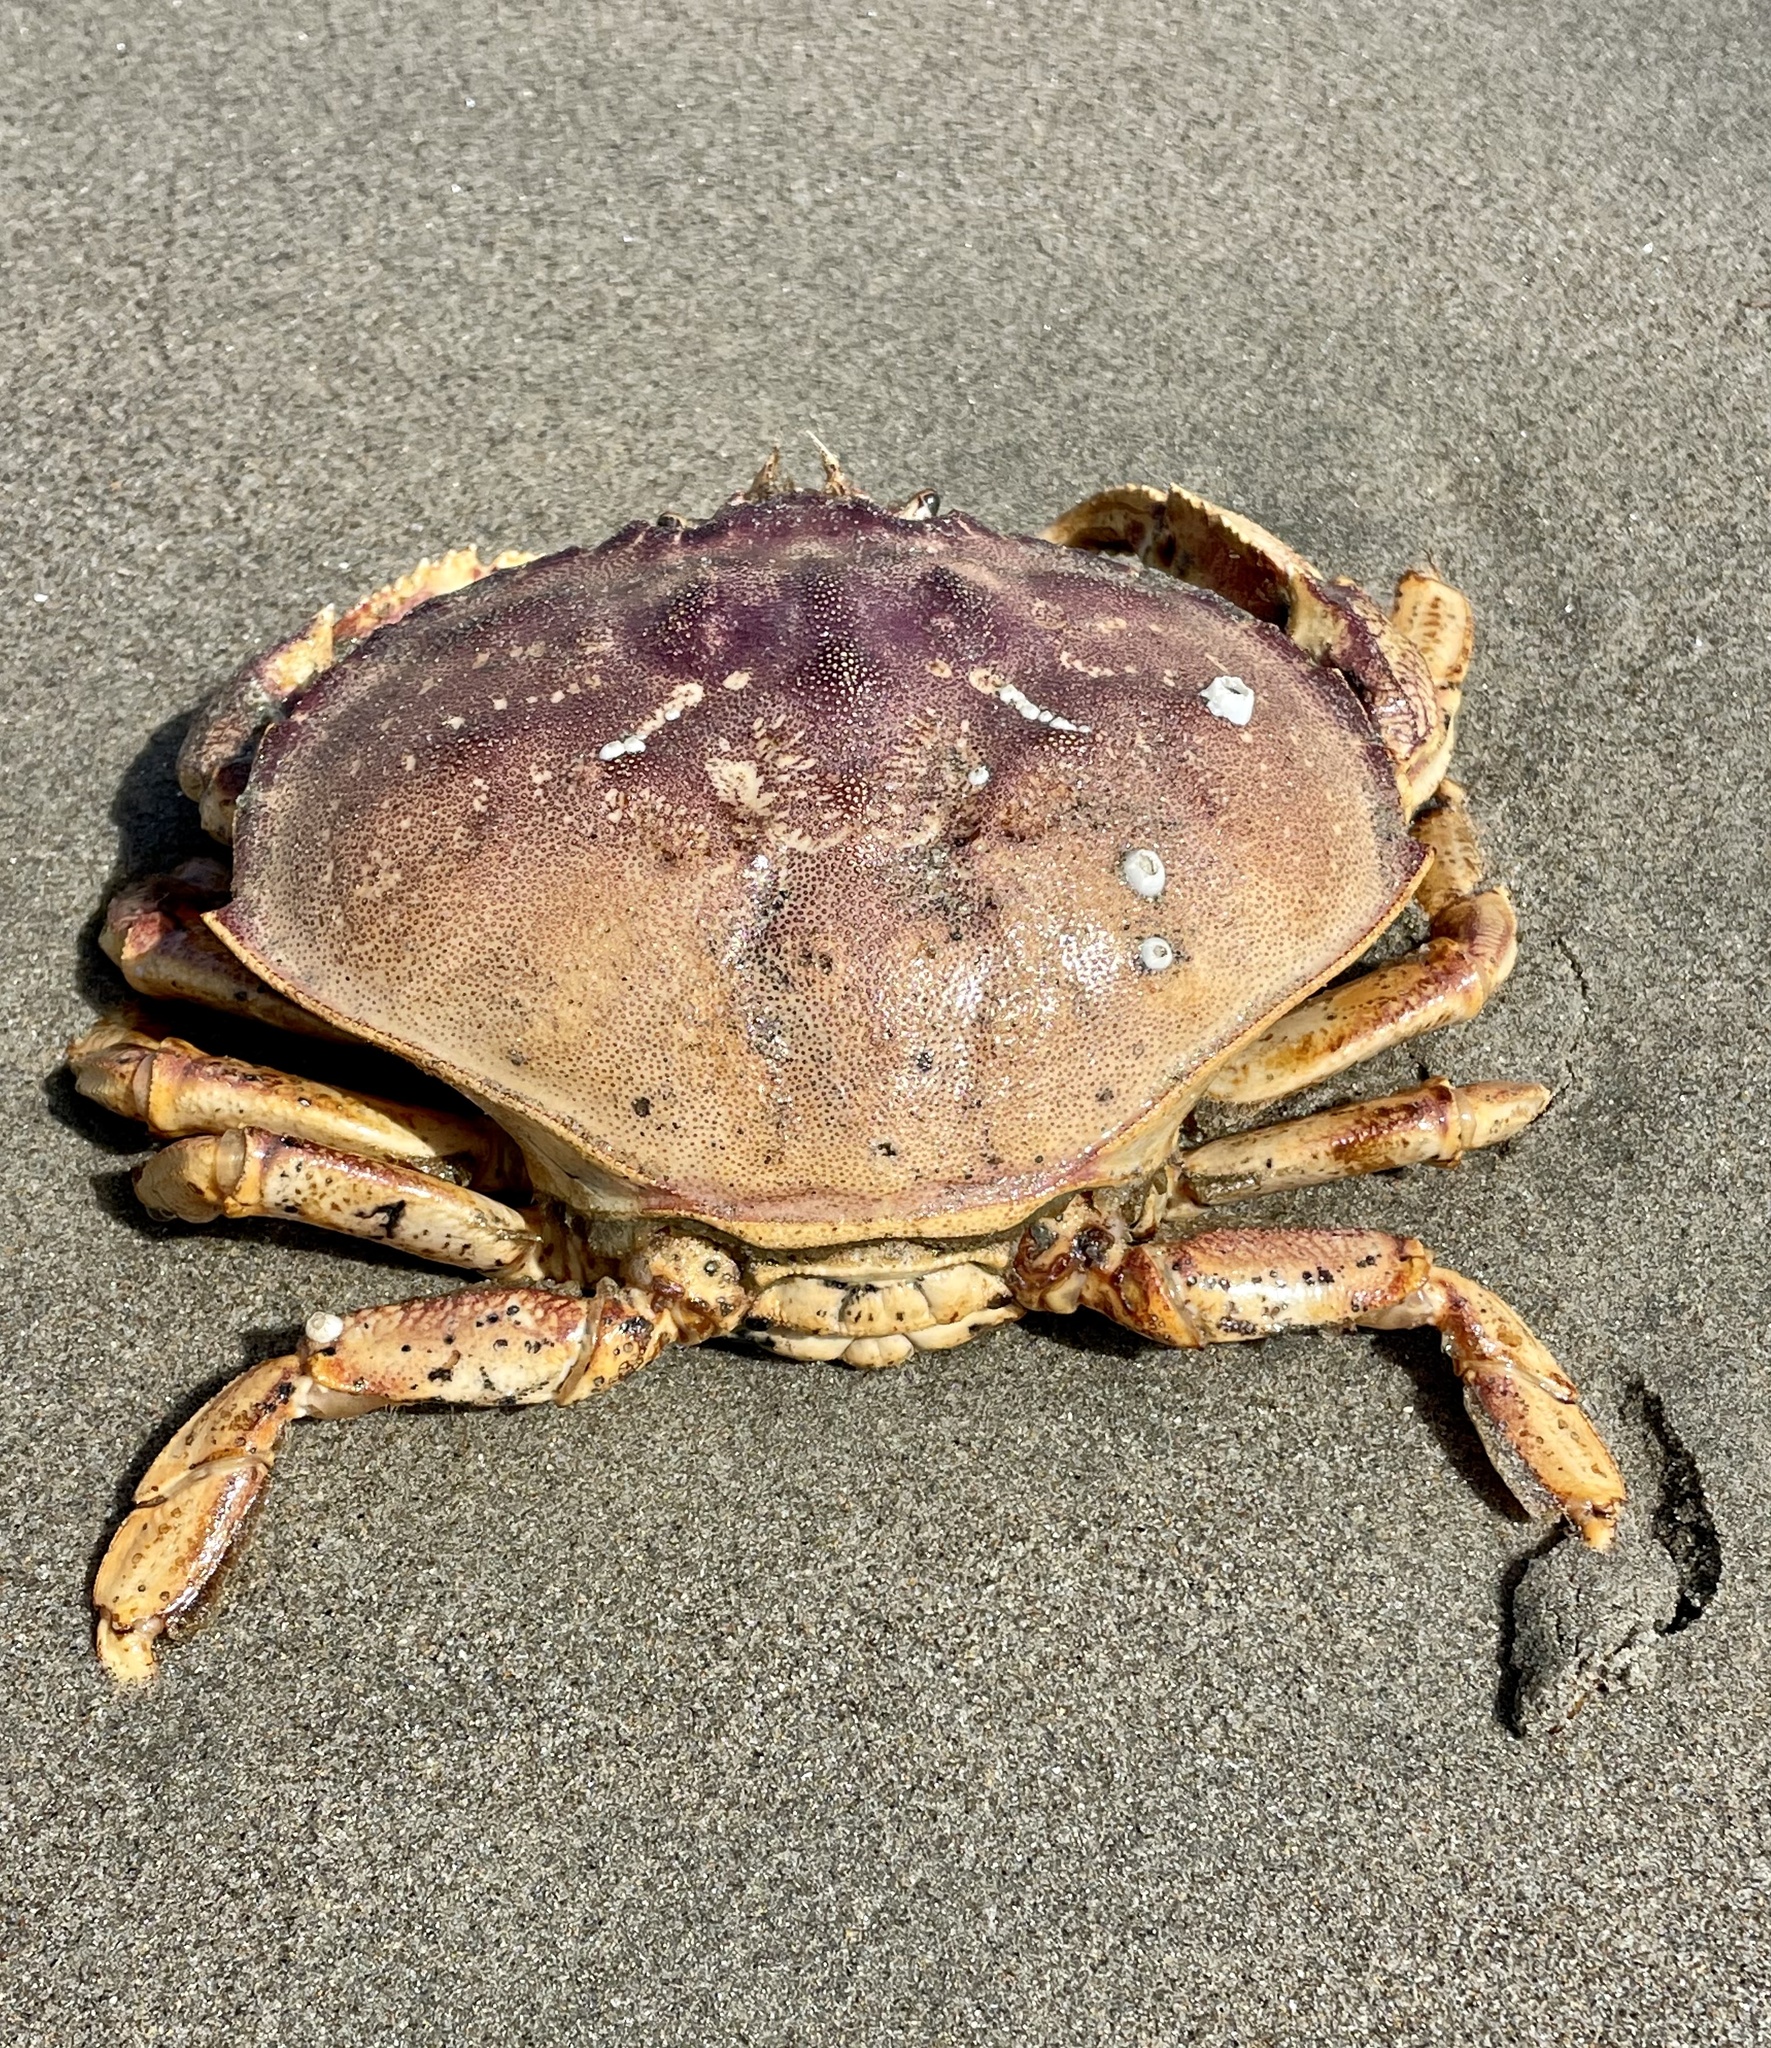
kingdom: Animalia
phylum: Arthropoda
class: Malacostraca
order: Decapoda
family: Cancridae
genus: Metacarcinus
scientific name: Metacarcinus magister
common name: Californian crab
